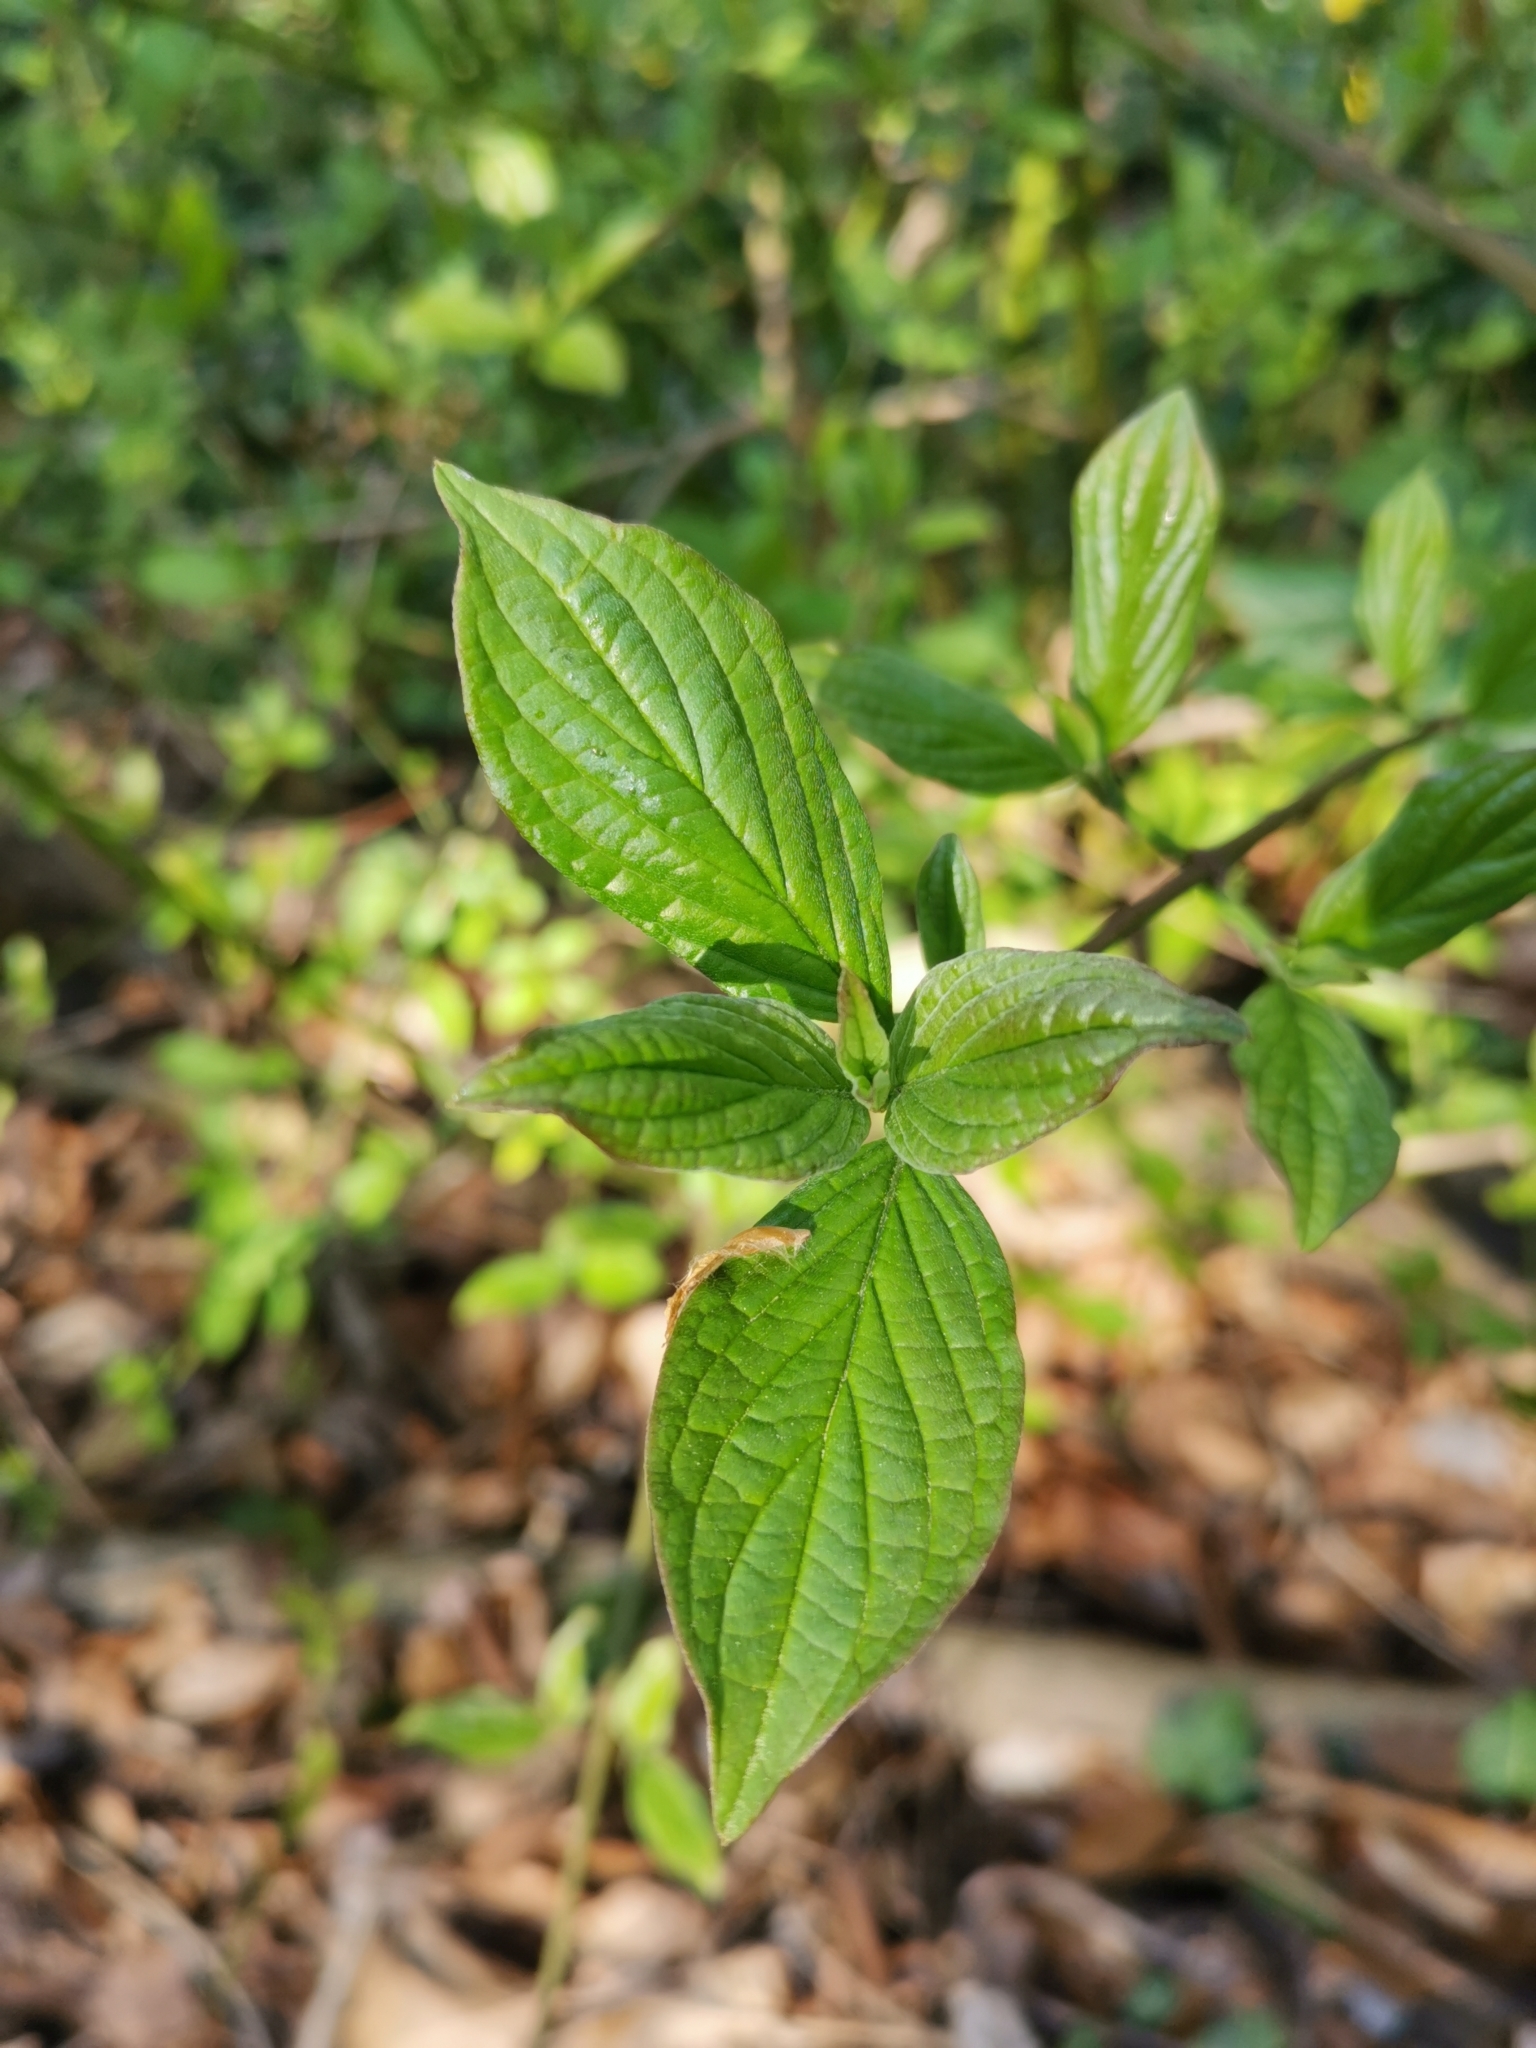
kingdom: Plantae
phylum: Tracheophyta
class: Magnoliopsida
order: Cornales
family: Cornaceae
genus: Cornus
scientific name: Cornus sanguinea
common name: Dogwood
